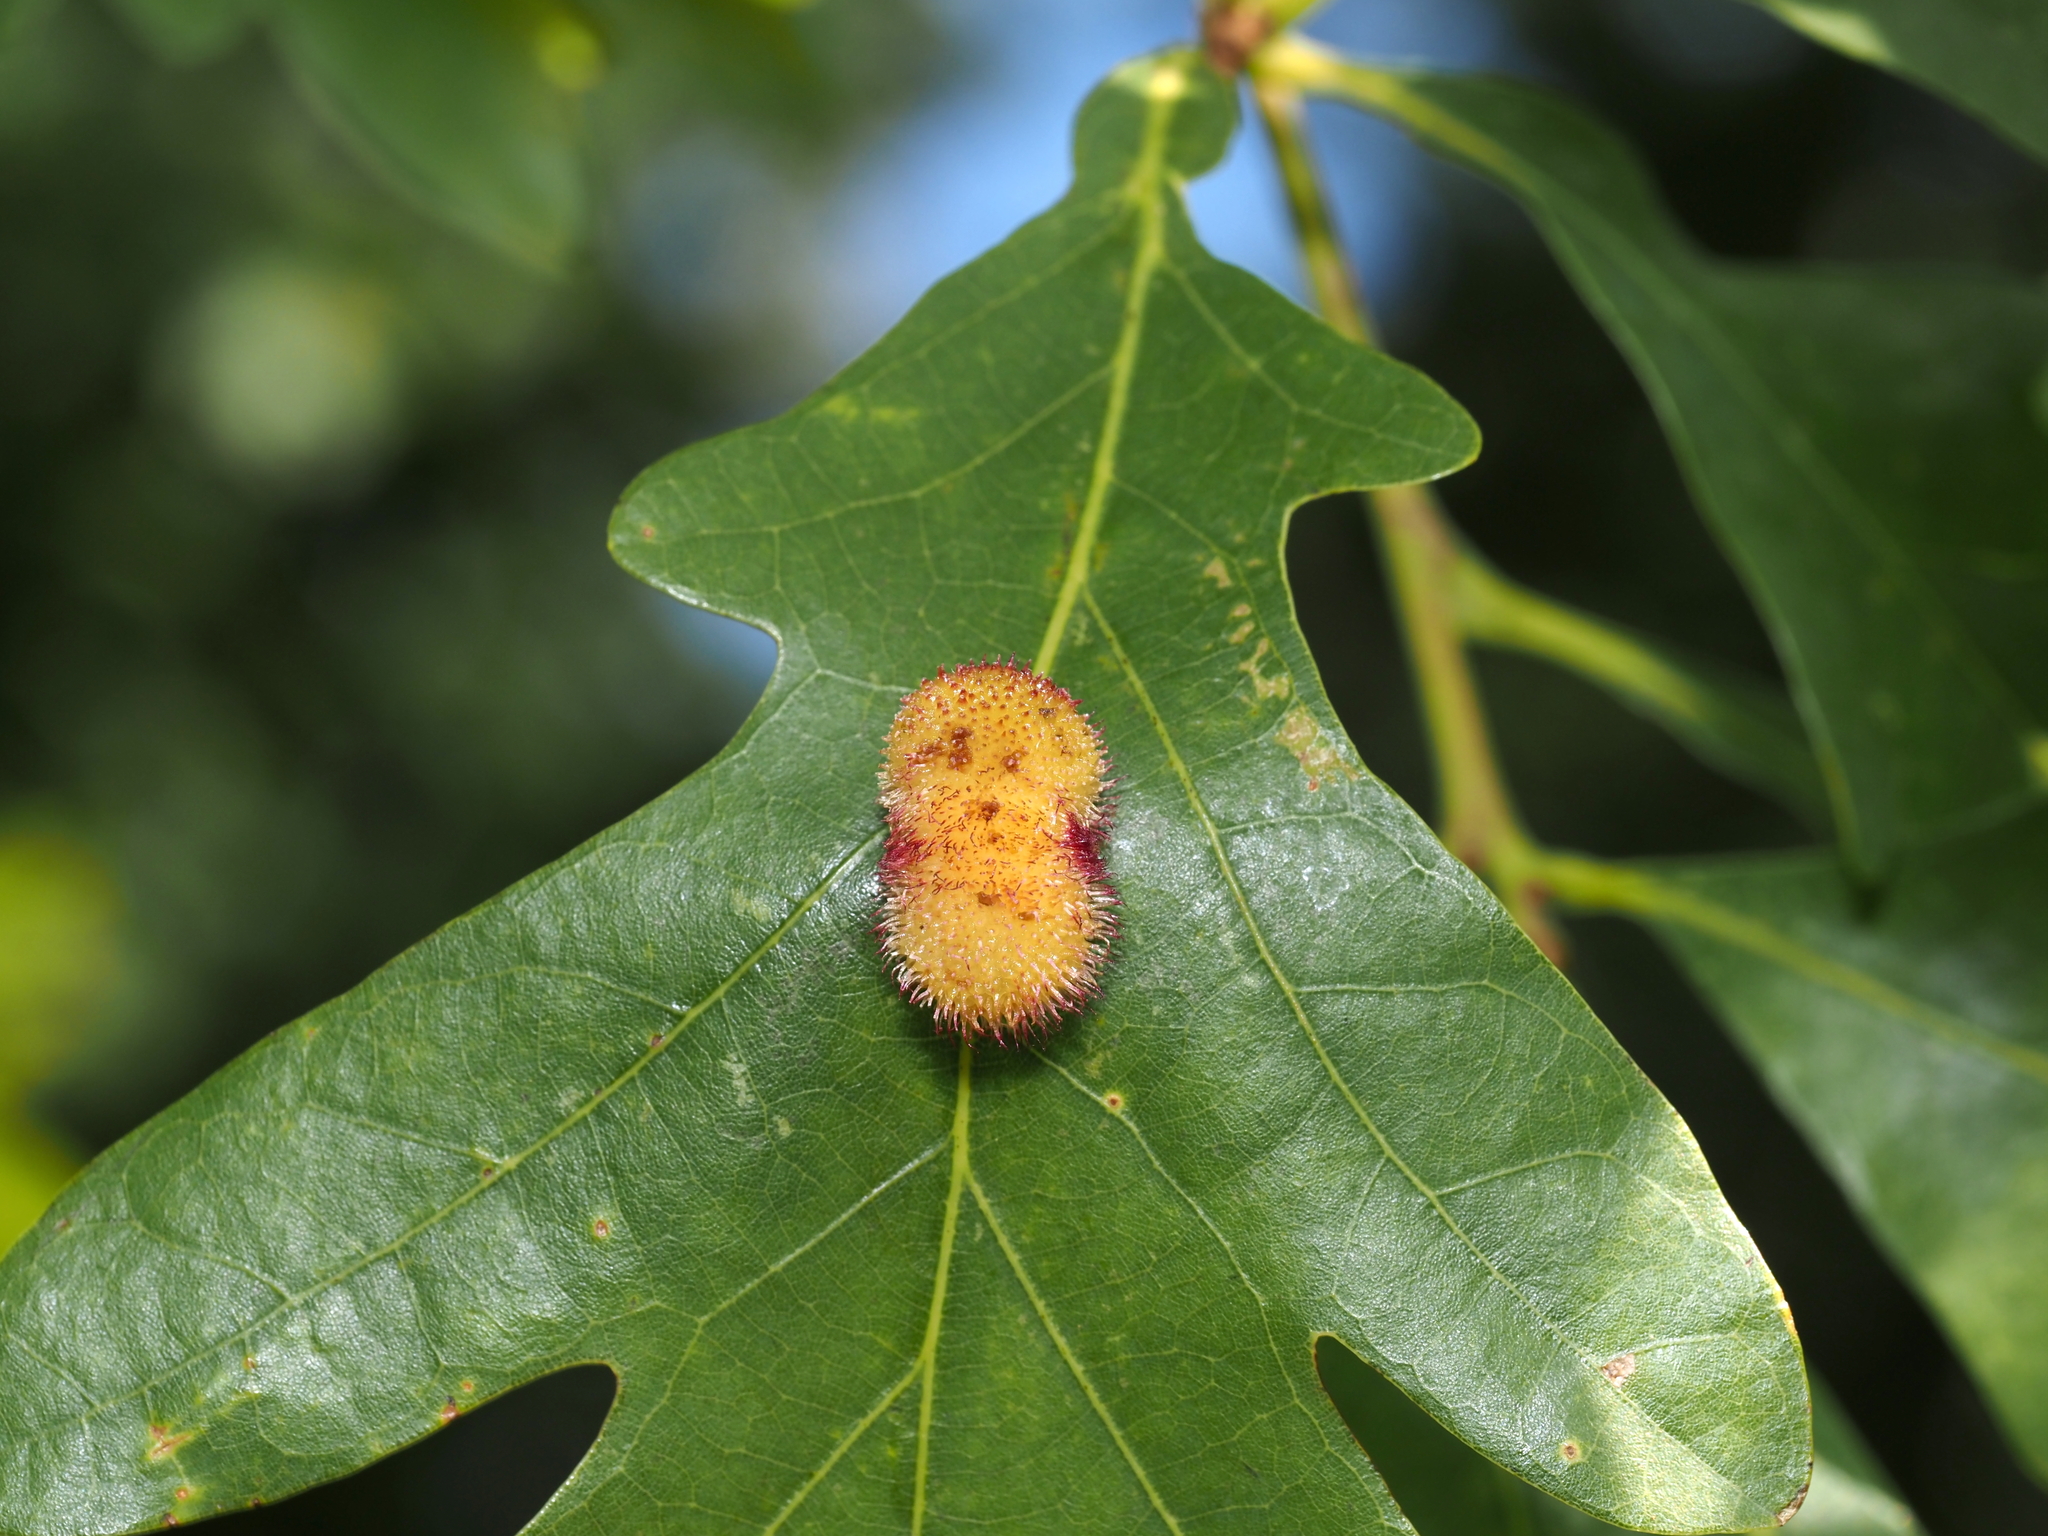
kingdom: Animalia
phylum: Arthropoda
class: Insecta
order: Hymenoptera
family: Cynipidae
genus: Acraspis
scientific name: Acraspis erinacei
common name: Hedgehog gall wasp
